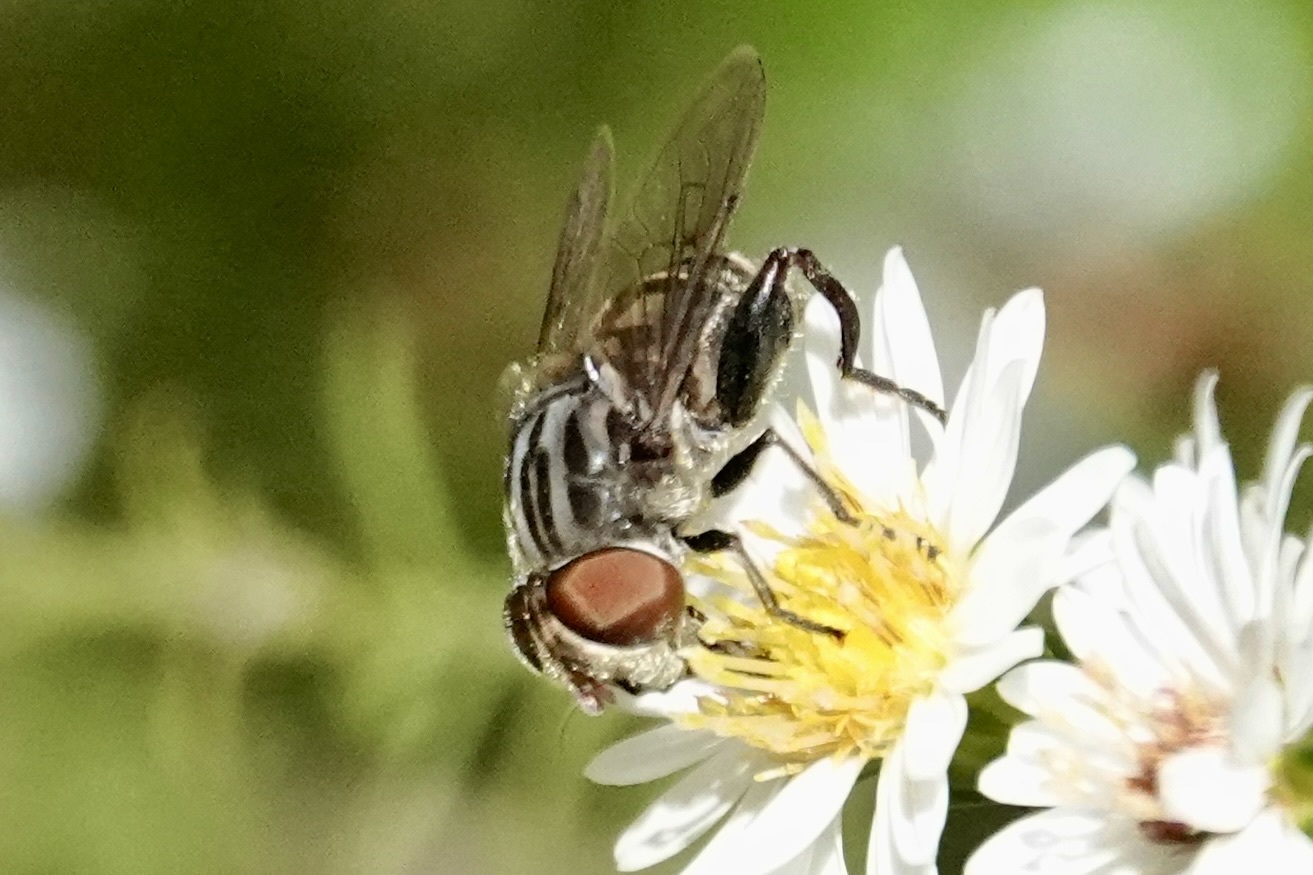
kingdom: Animalia
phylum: Arthropoda
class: Insecta
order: Diptera
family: Syrphidae
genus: Palpada
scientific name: Palpada furcata
